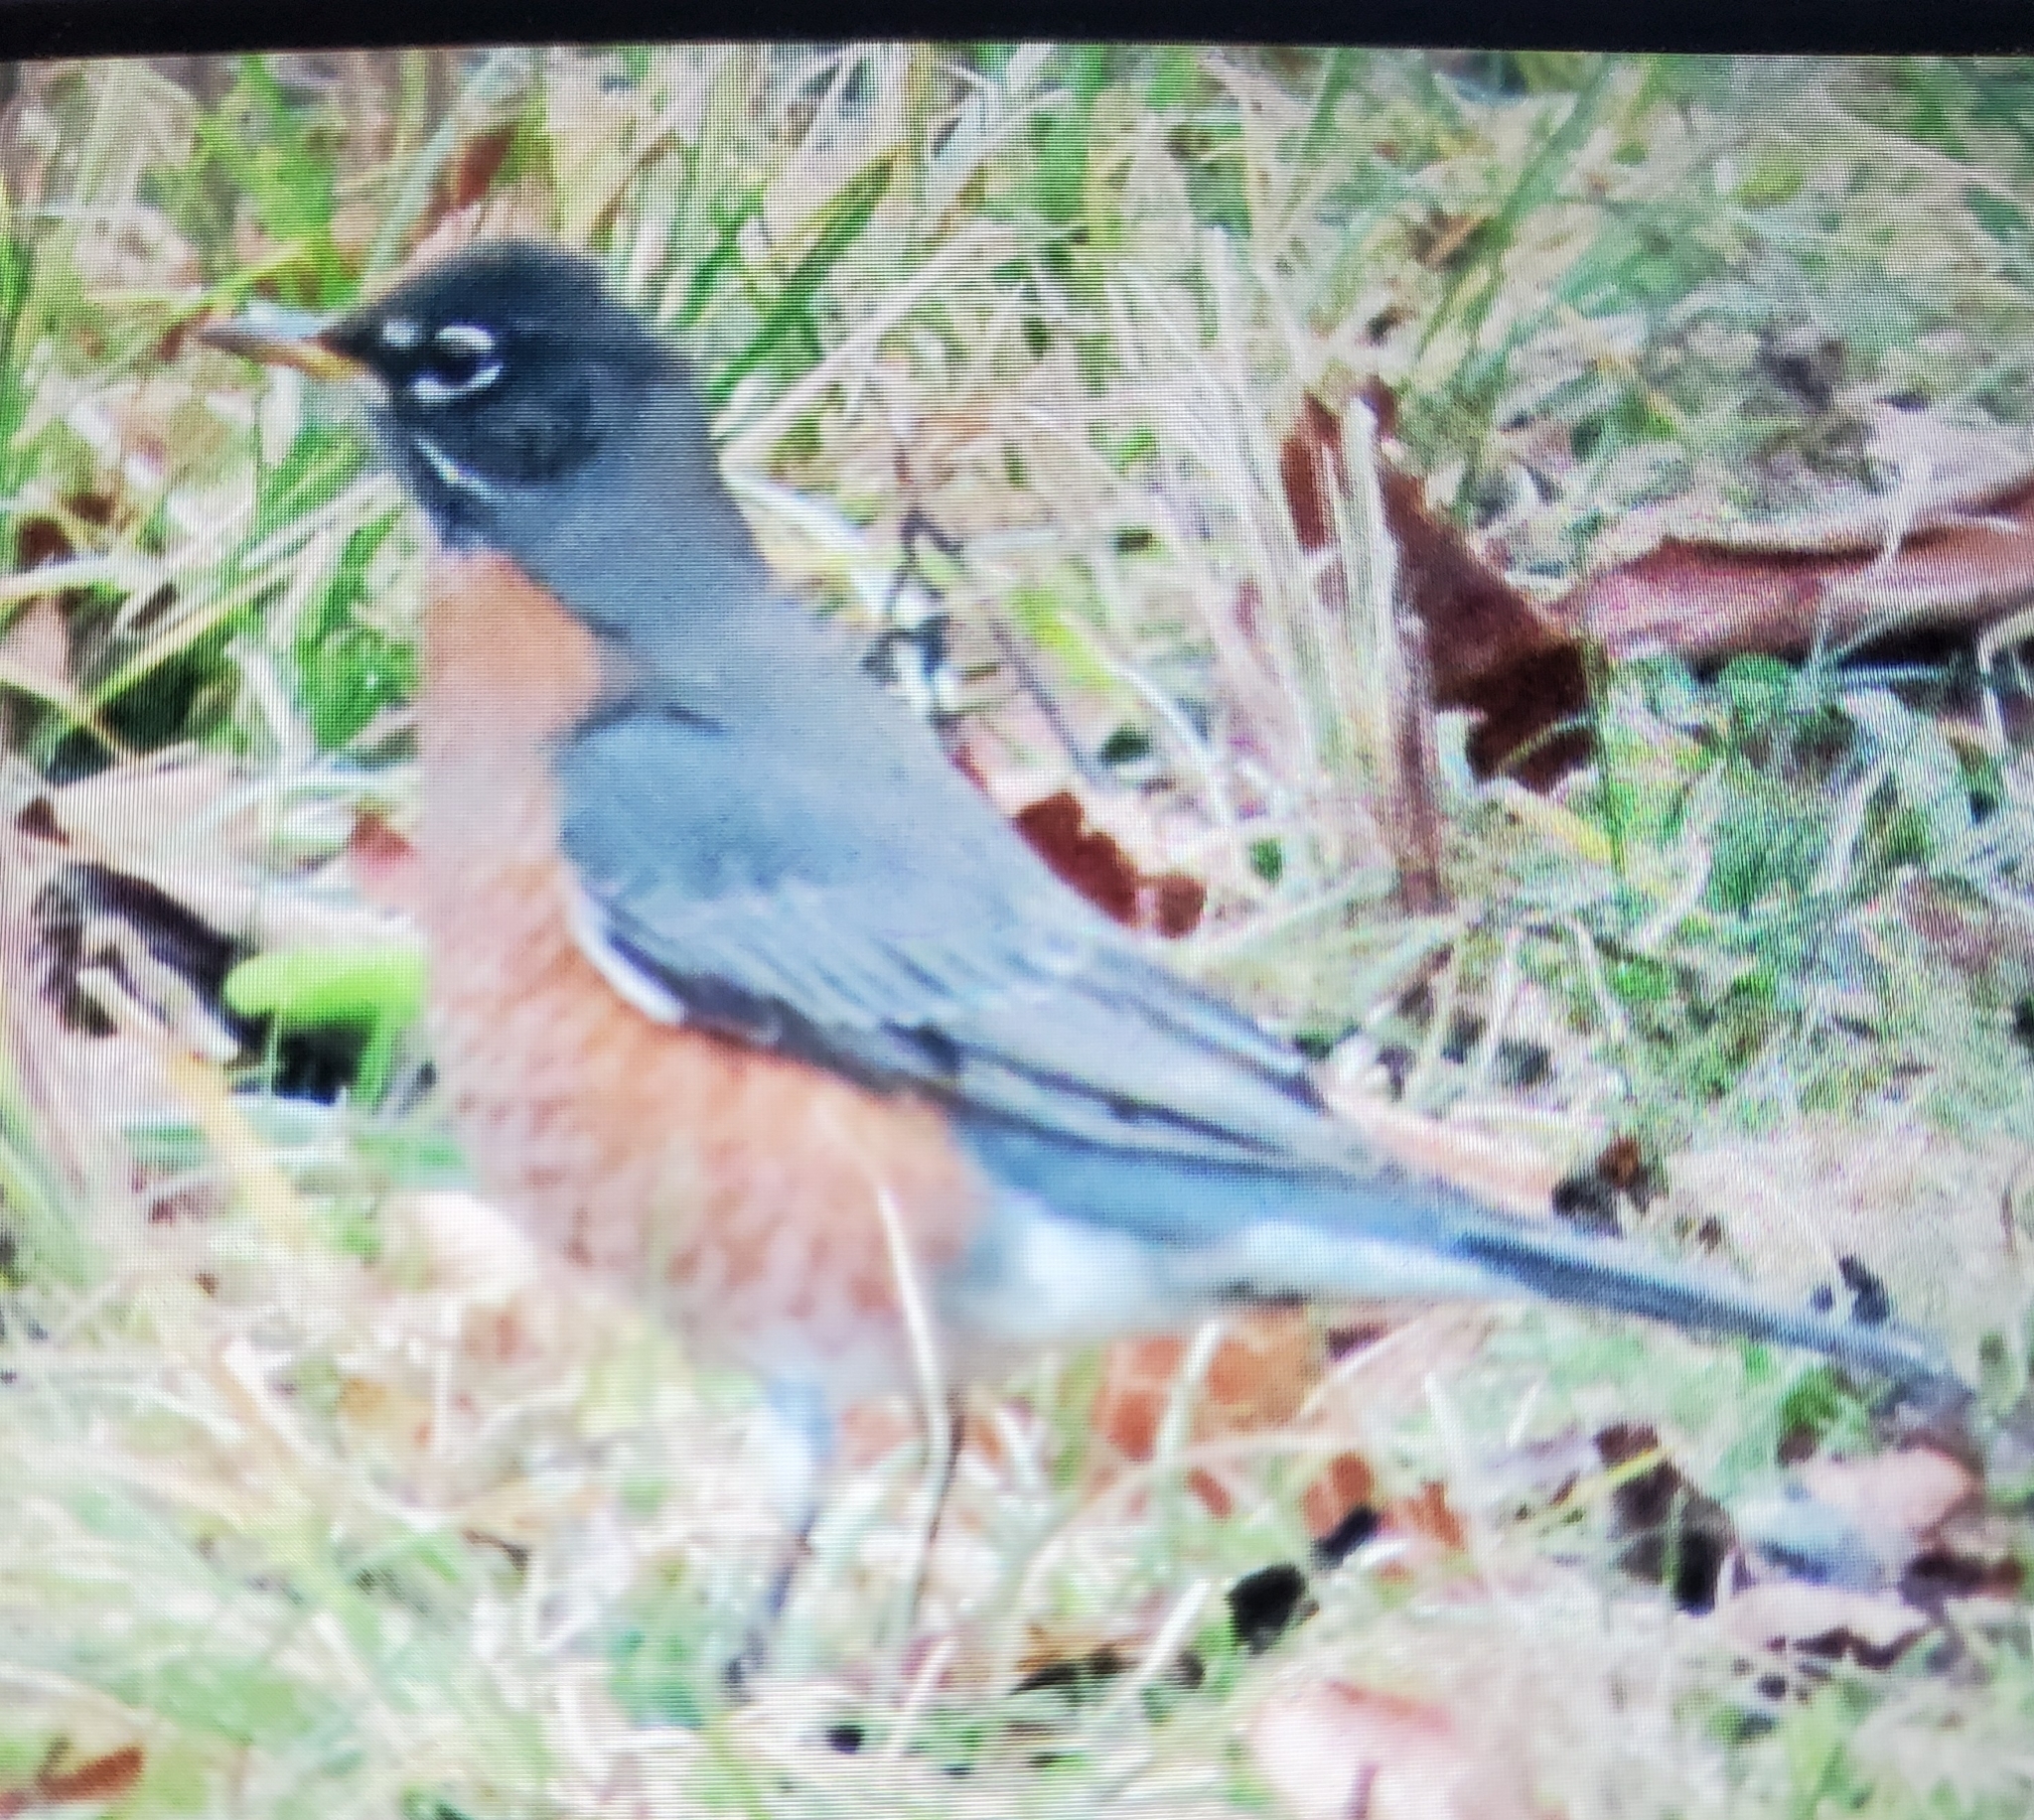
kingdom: Animalia
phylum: Chordata
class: Aves
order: Passeriformes
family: Turdidae
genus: Turdus
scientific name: Turdus migratorius
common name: American robin
